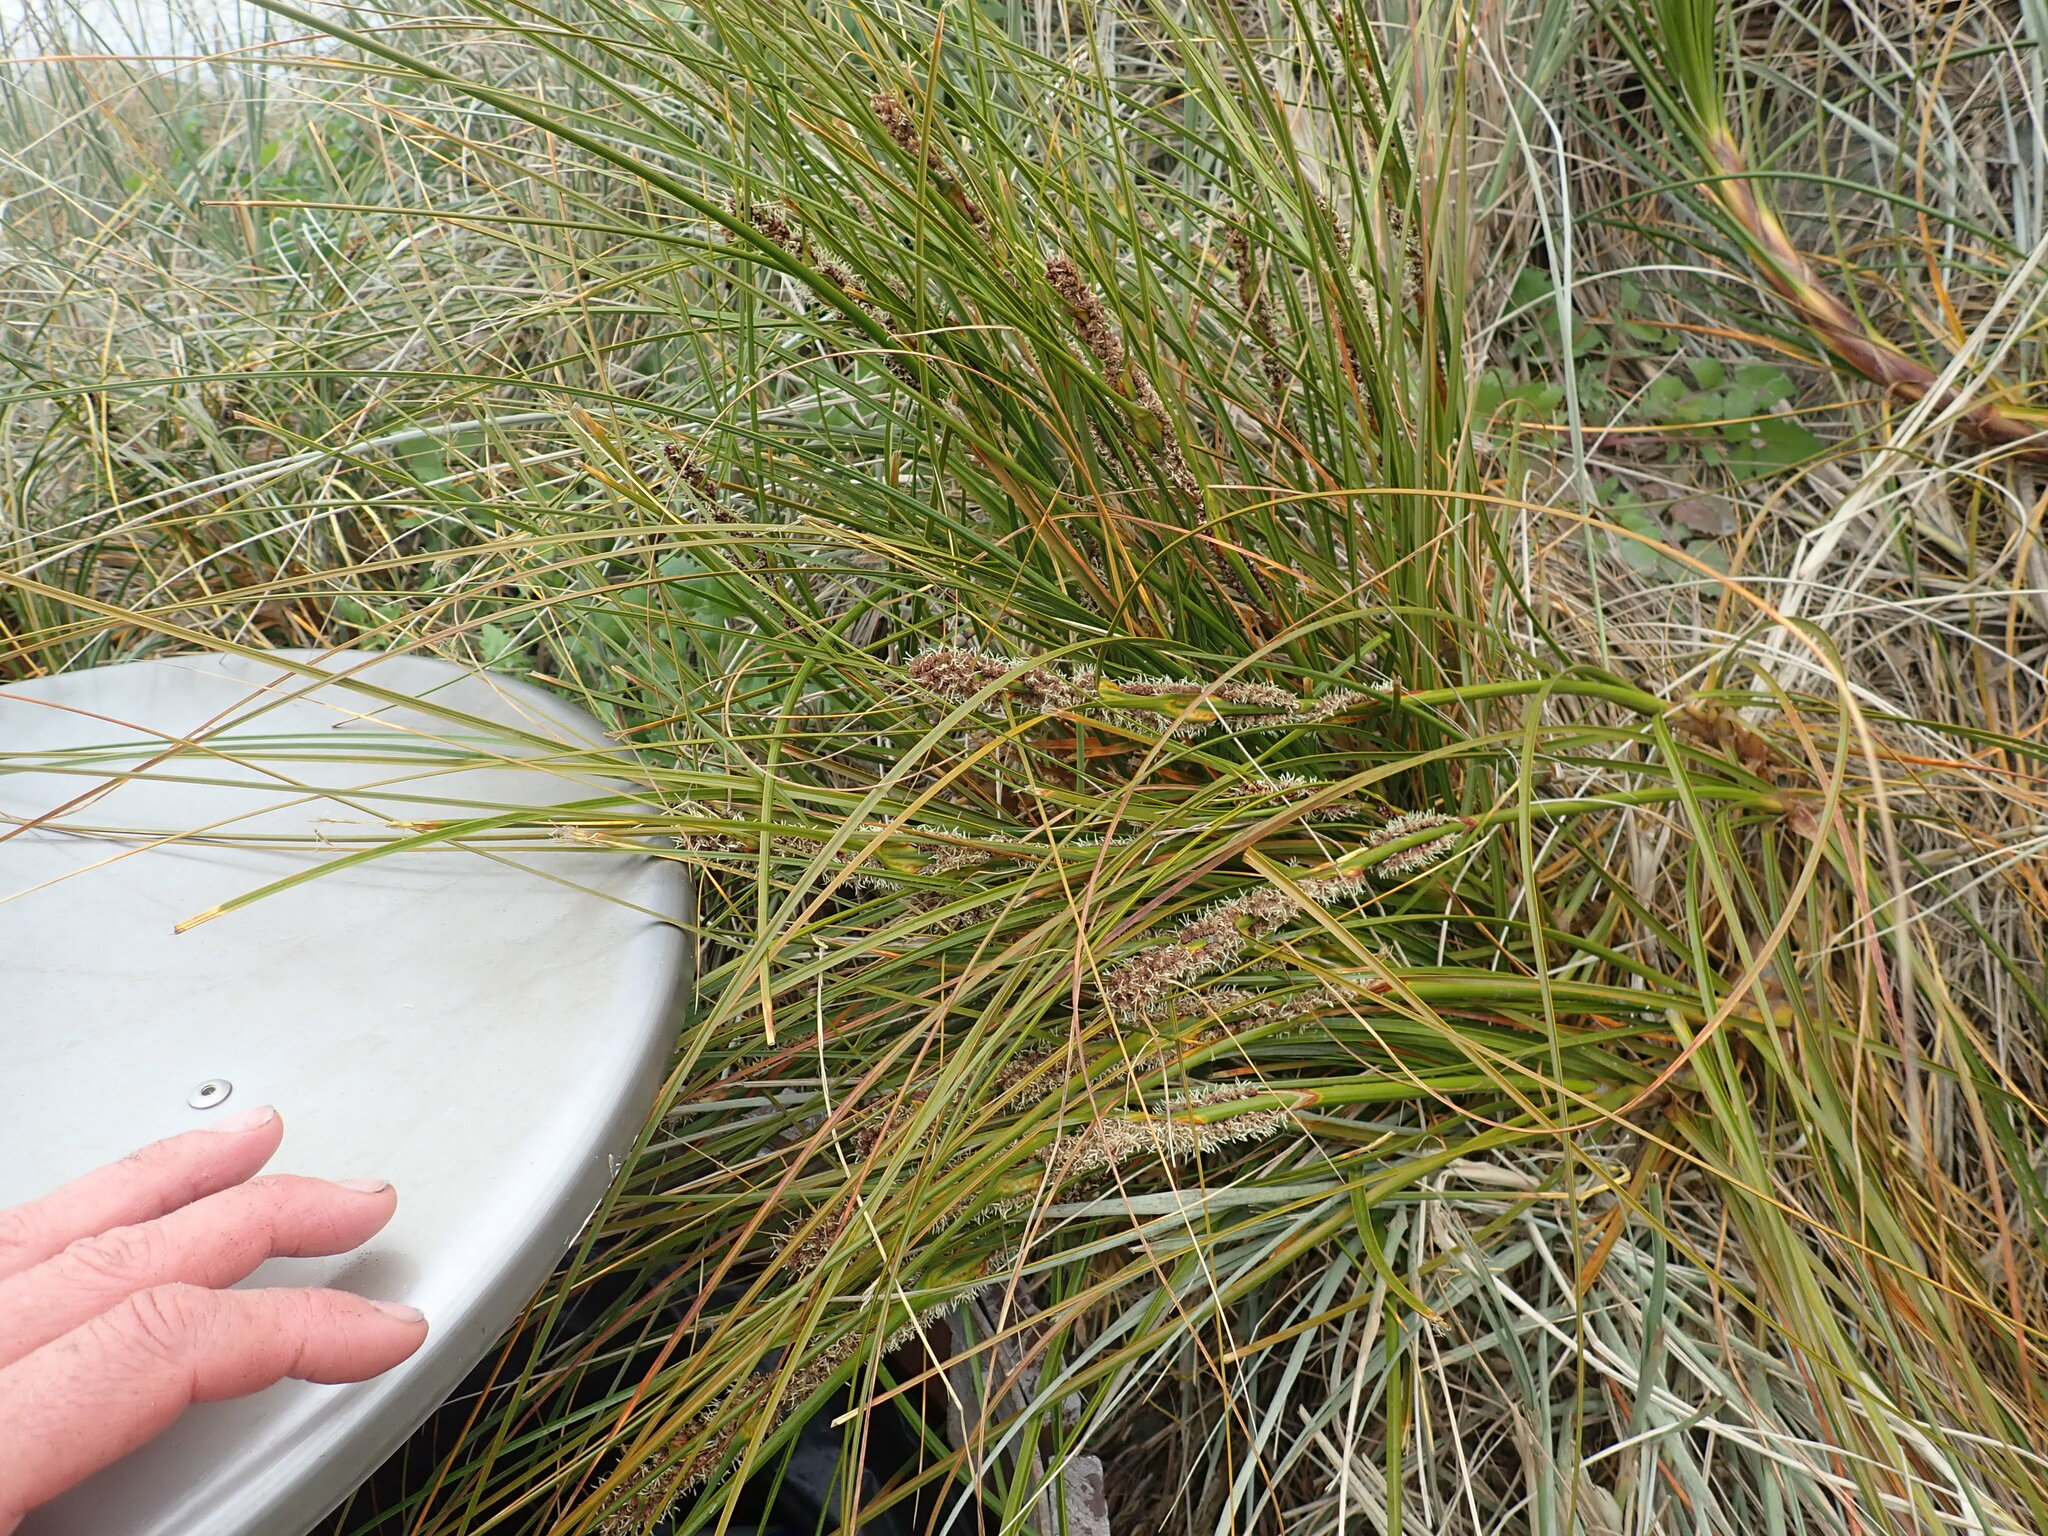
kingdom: Plantae
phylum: Tracheophyta
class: Liliopsida
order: Poales
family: Cyperaceae
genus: Ficinia
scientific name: Ficinia spiralis
